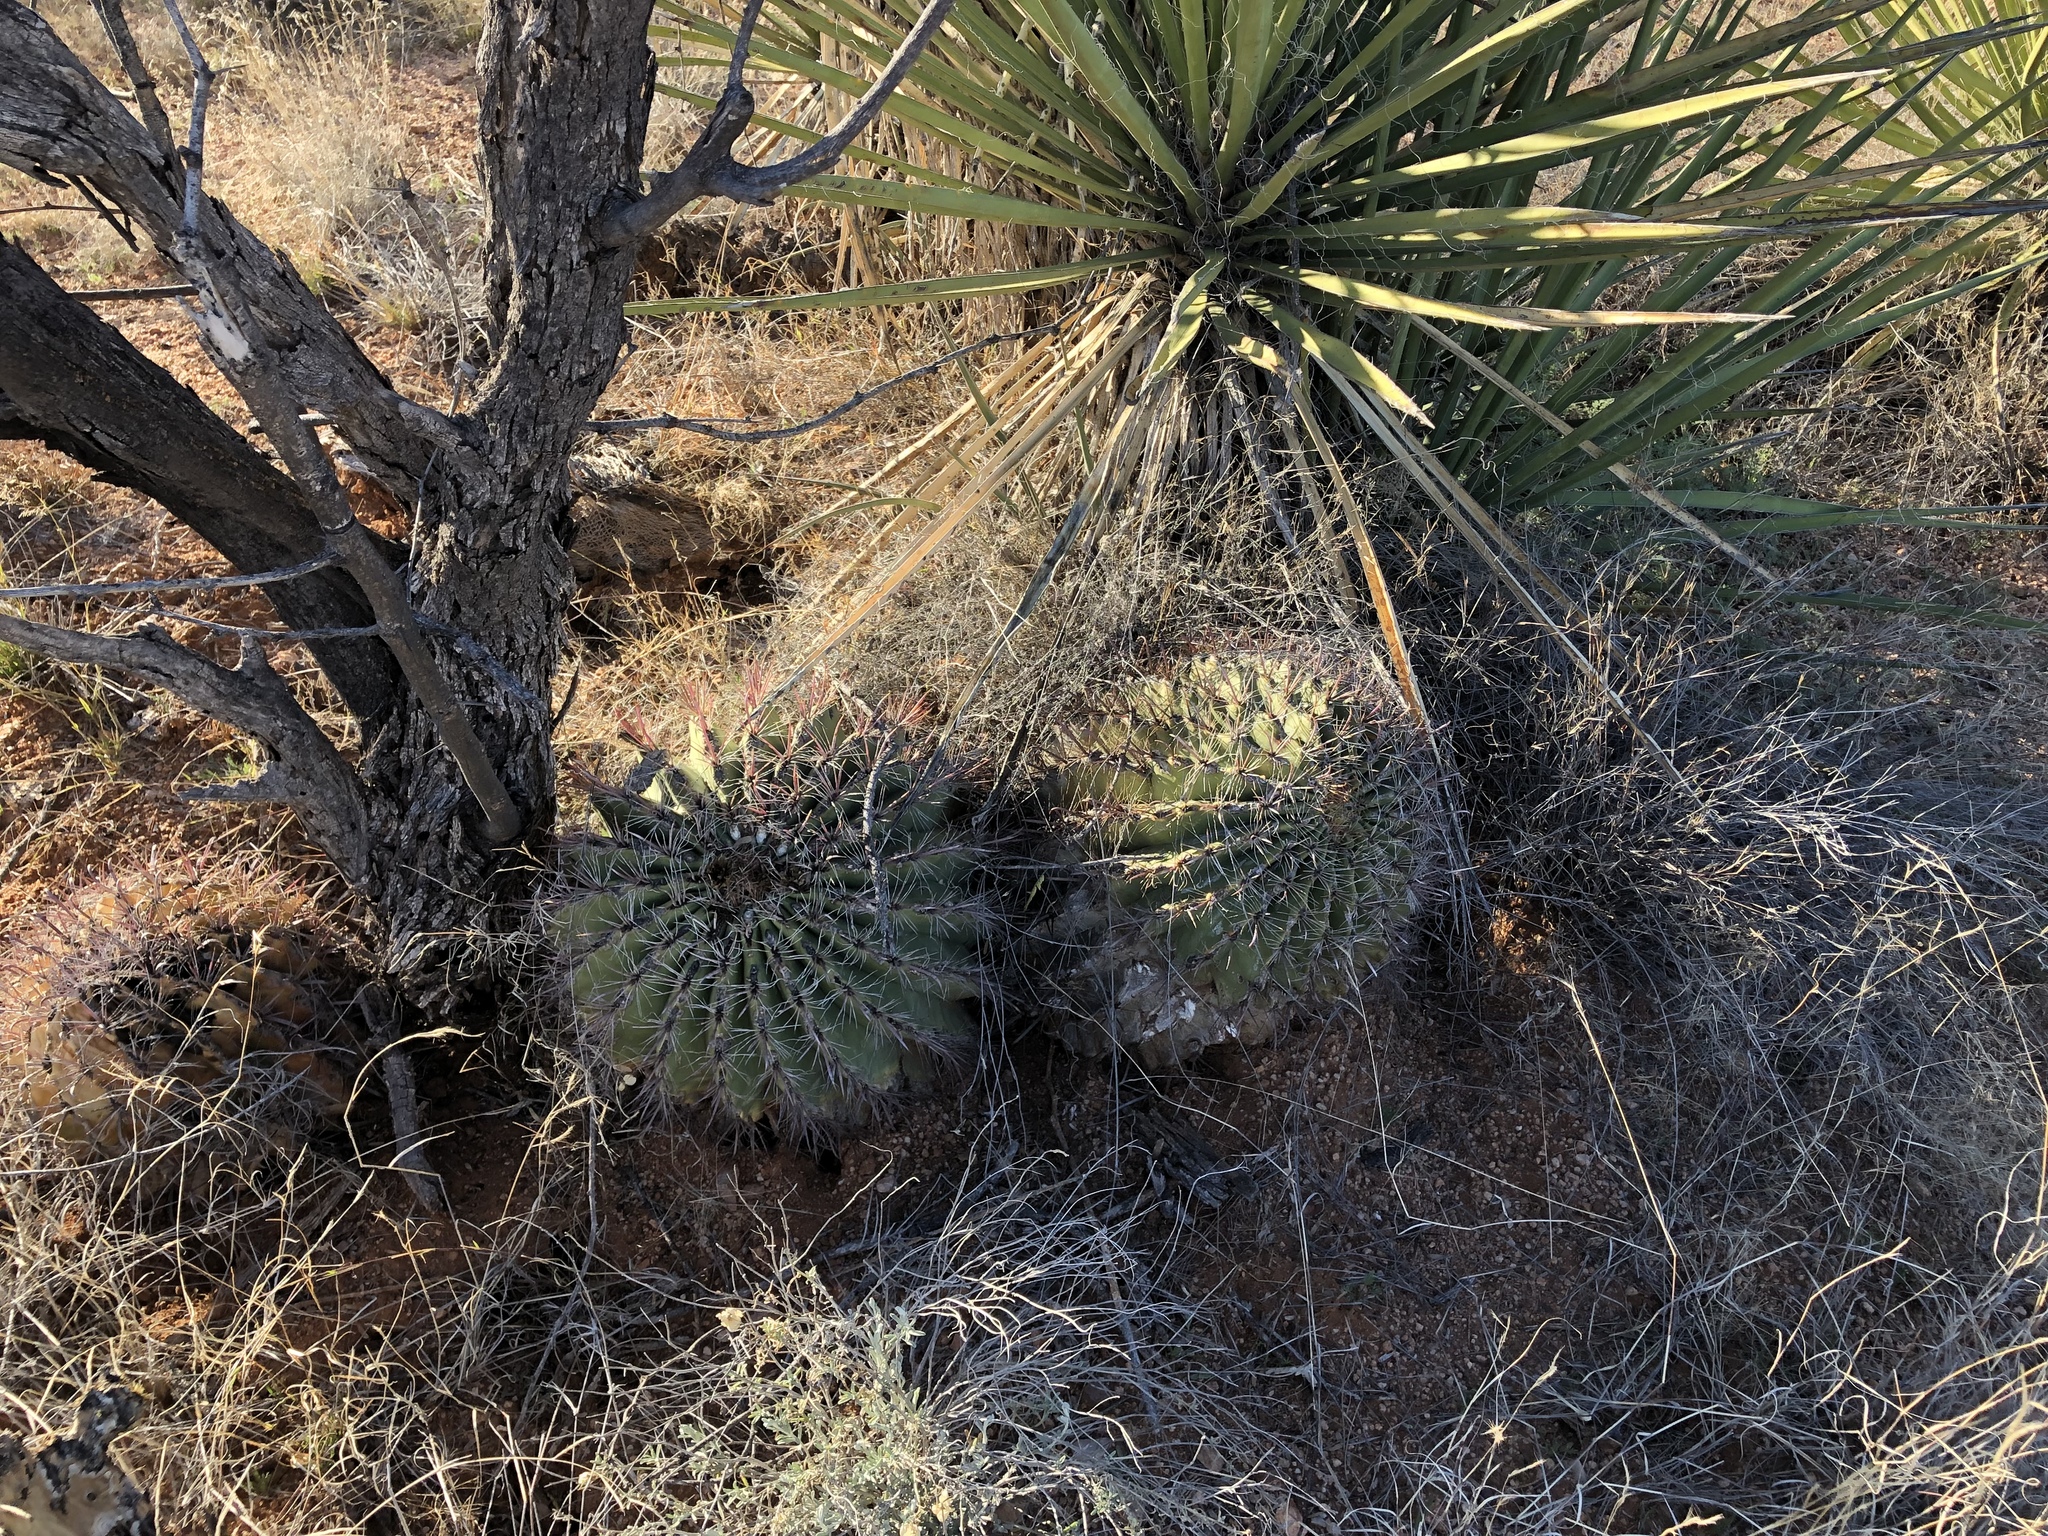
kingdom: Plantae
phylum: Tracheophyta
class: Magnoliopsida
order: Caryophyllales
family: Cactaceae
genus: Ferocactus
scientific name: Ferocactus wislizeni
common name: Candy barrel cactus
